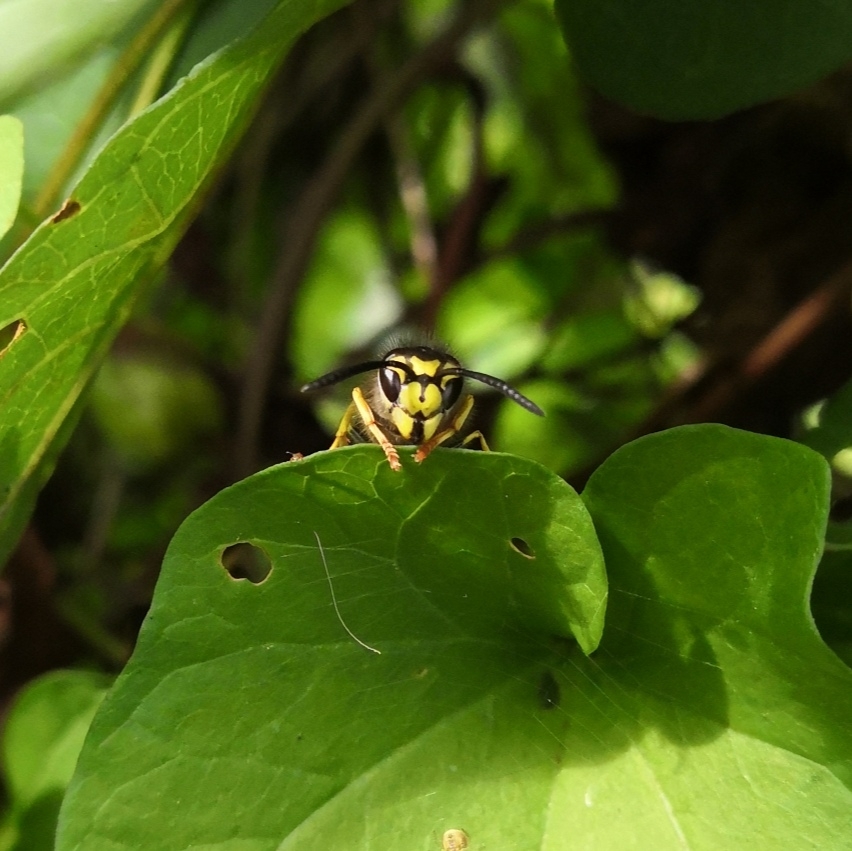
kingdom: Animalia
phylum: Arthropoda
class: Insecta
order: Hymenoptera
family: Vespidae
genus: Vespula
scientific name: Vespula germanica
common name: German wasp
